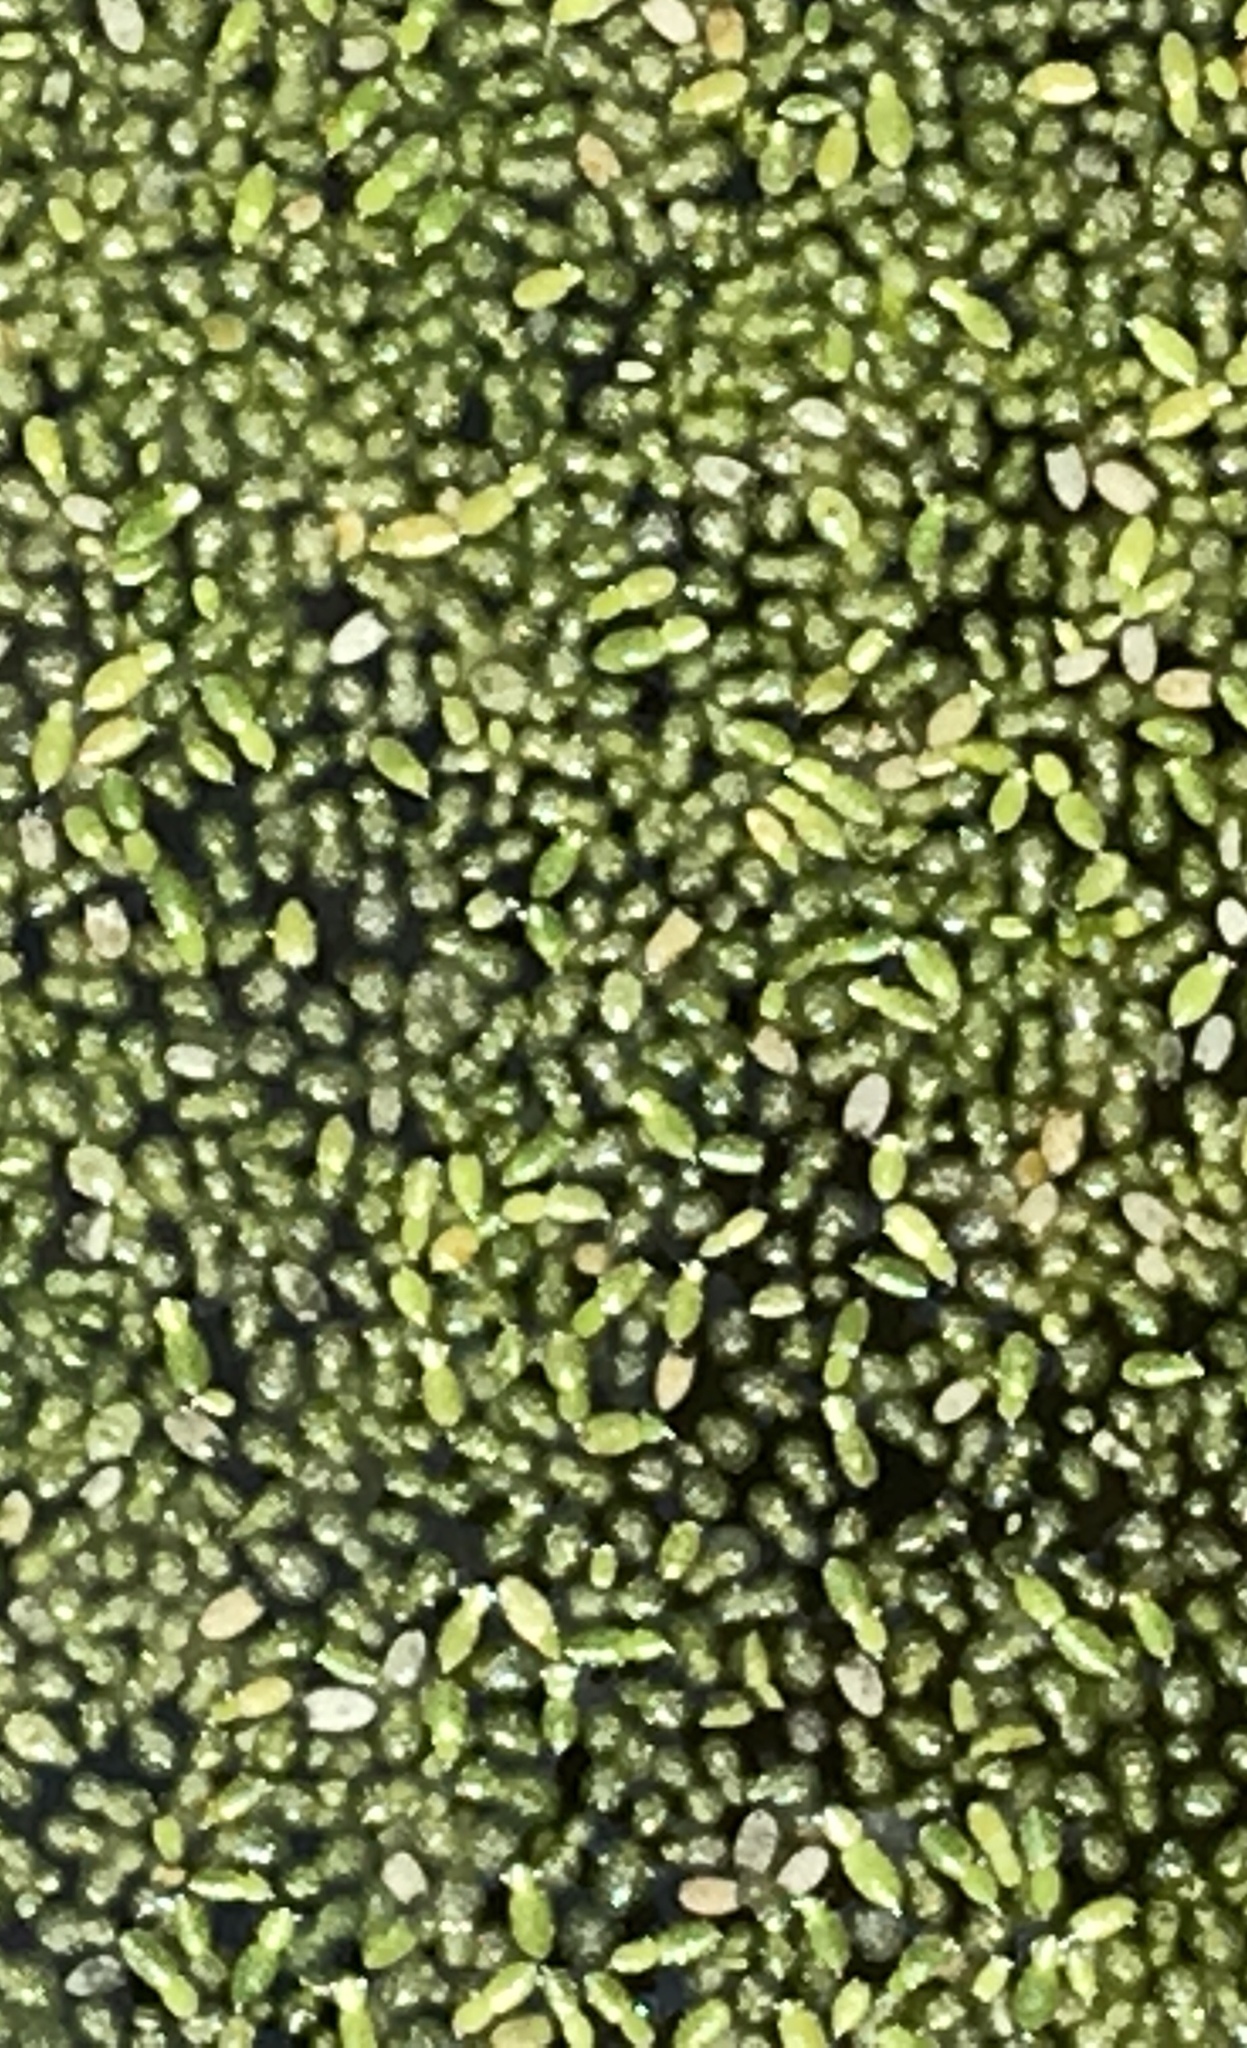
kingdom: Plantae
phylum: Tracheophyta
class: Liliopsida
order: Alismatales
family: Araceae
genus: Wolffia
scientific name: Wolffia borealis
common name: Dotted watermeal
